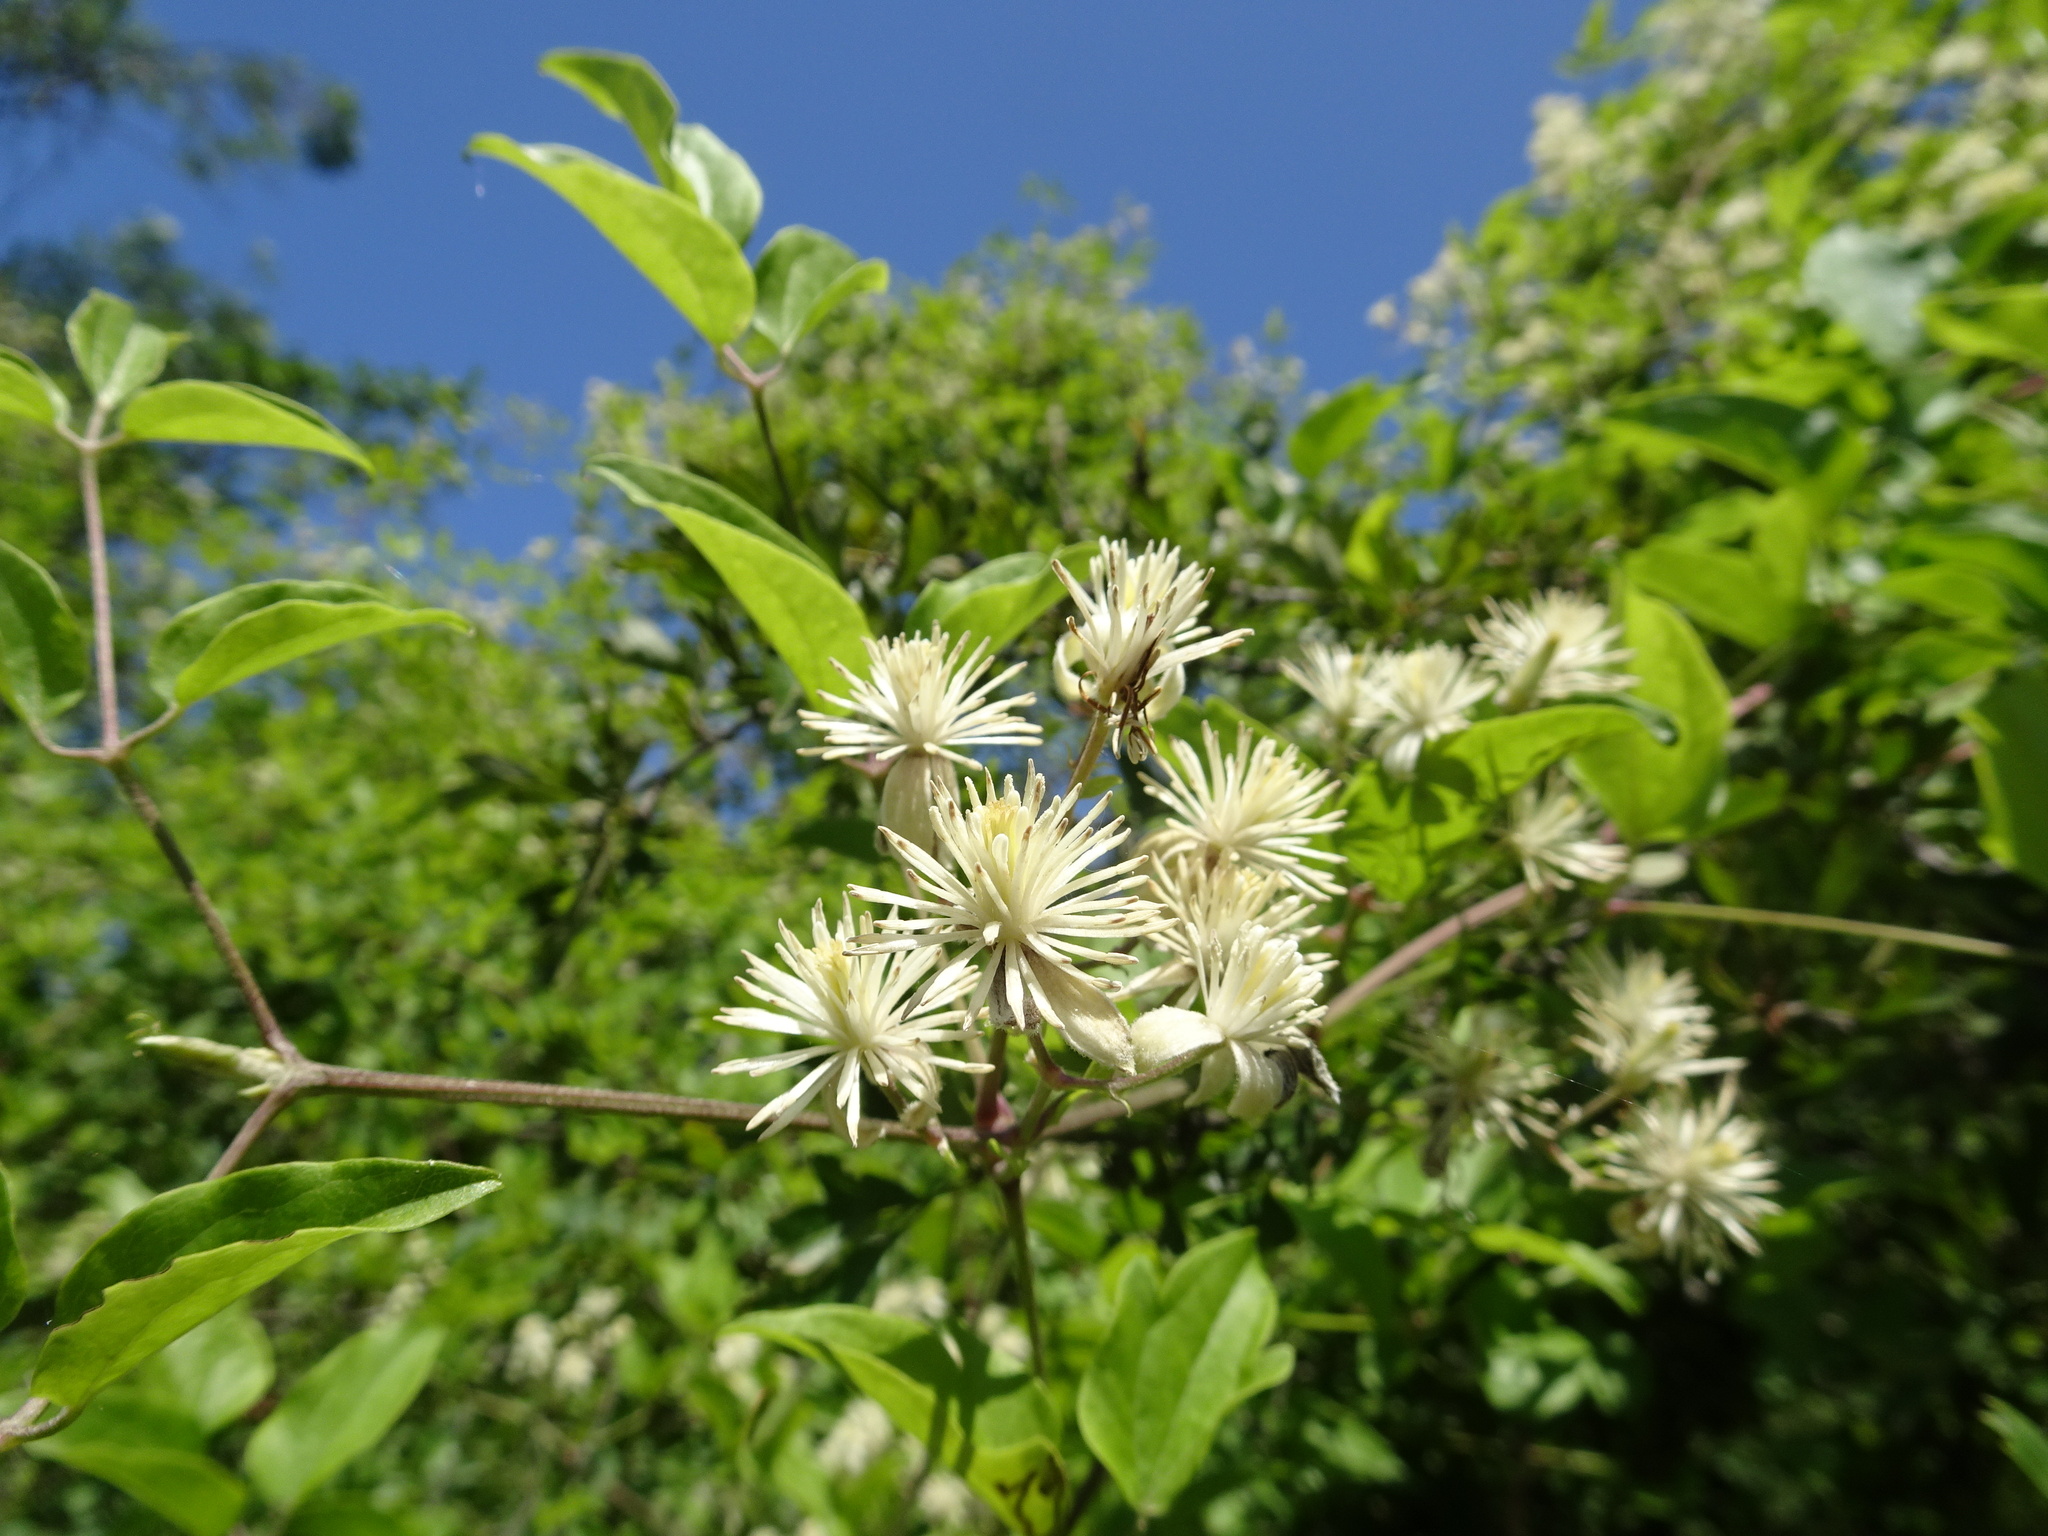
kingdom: Plantae
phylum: Tracheophyta
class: Magnoliopsida
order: Ranunculales
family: Ranunculaceae
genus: Clematis
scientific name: Clematis vitalba
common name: Evergreen clematis
